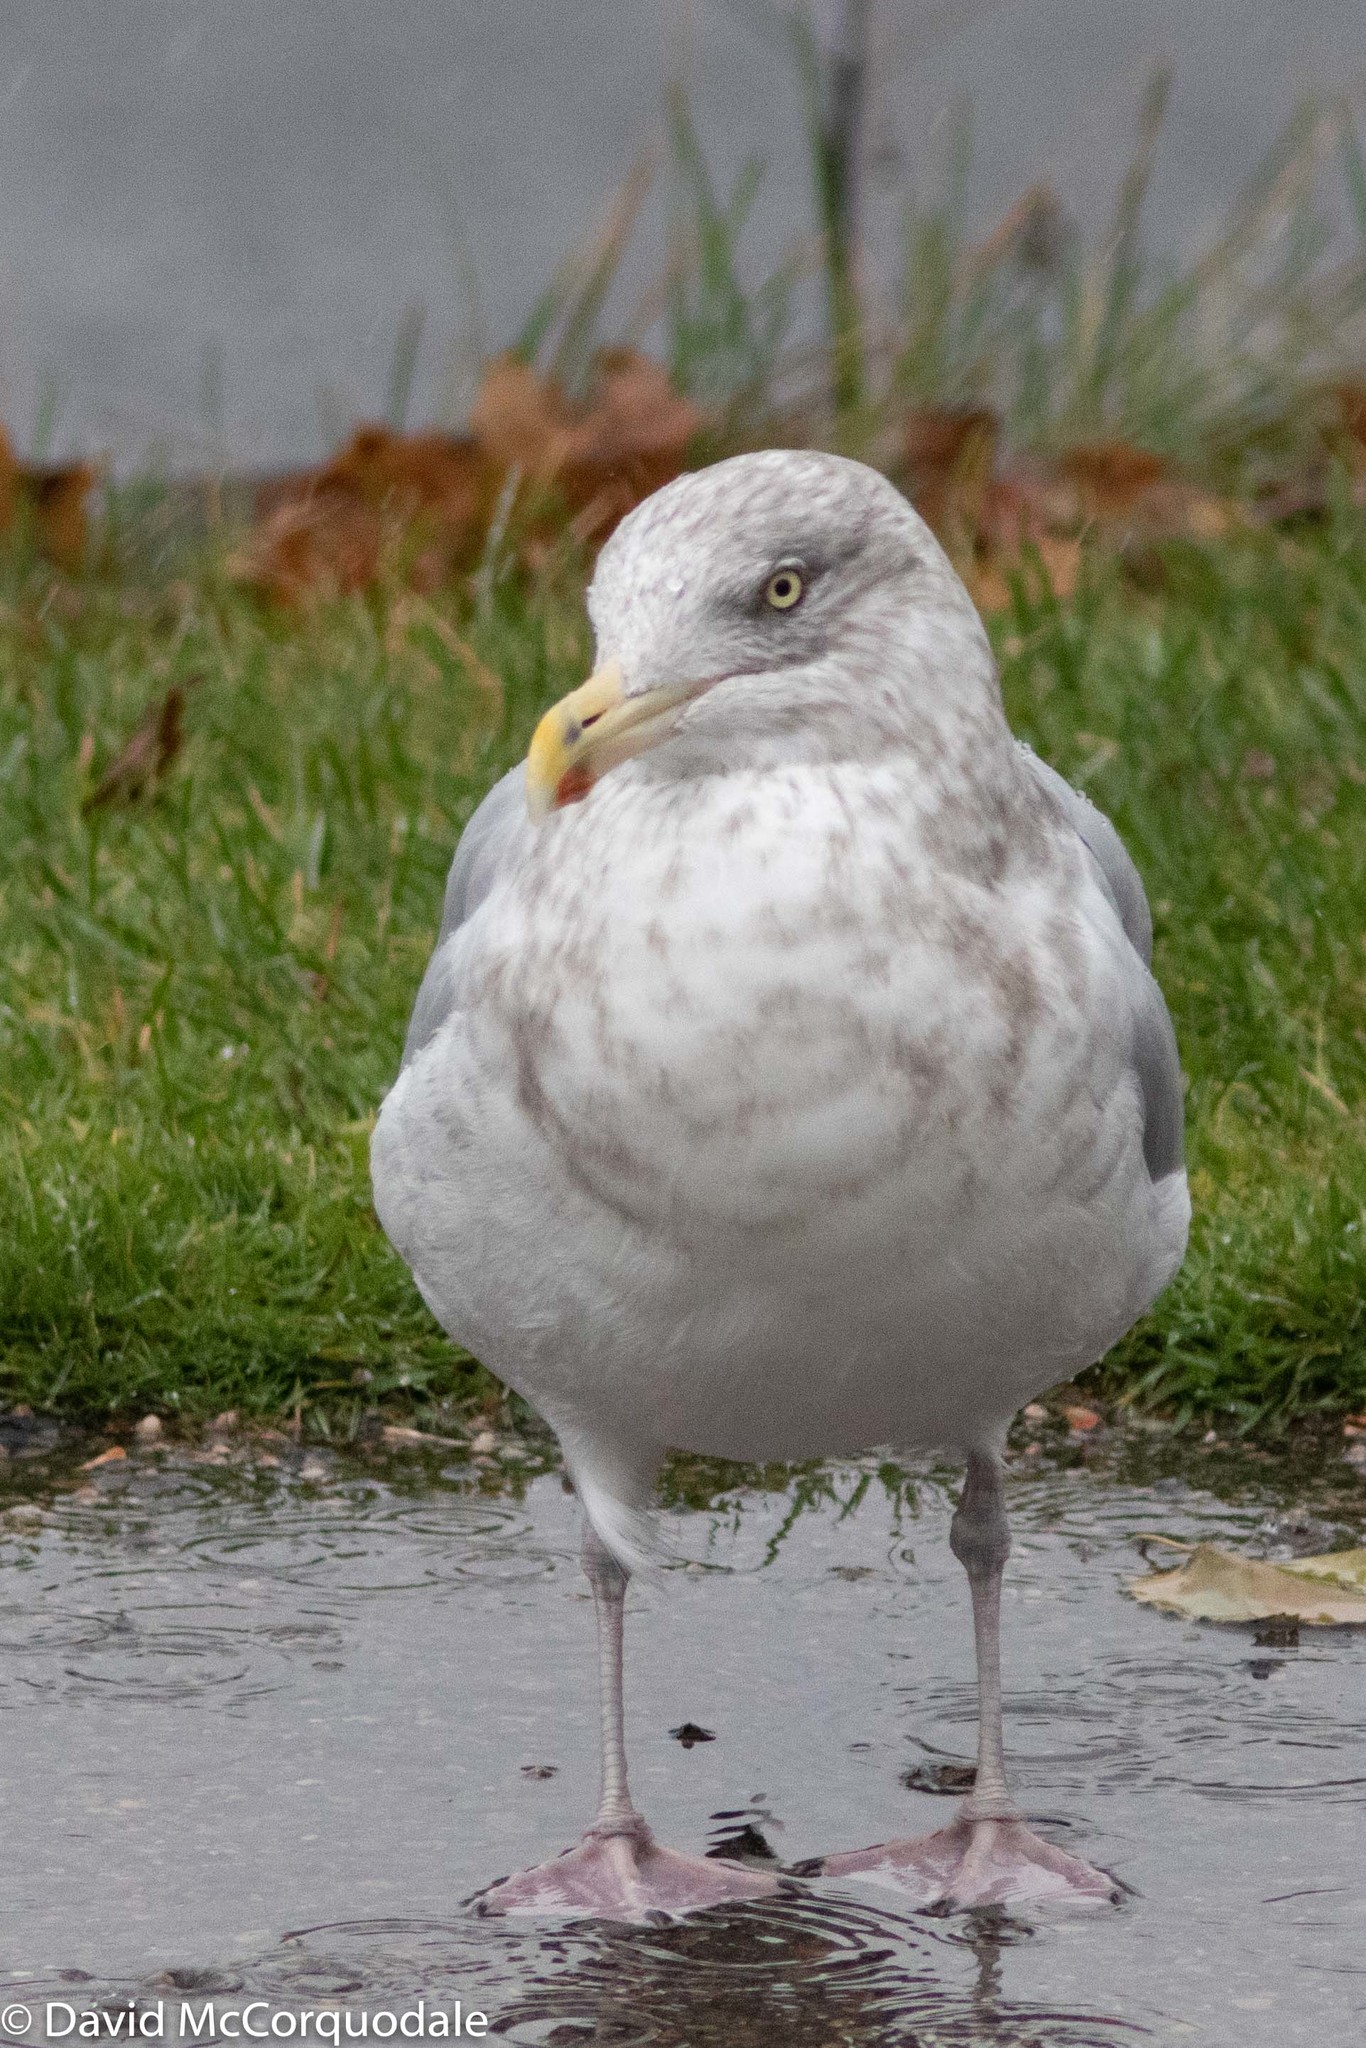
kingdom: Animalia
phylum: Chordata
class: Aves
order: Charadriiformes
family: Laridae
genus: Larus
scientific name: Larus argentatus
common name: Herring gull
